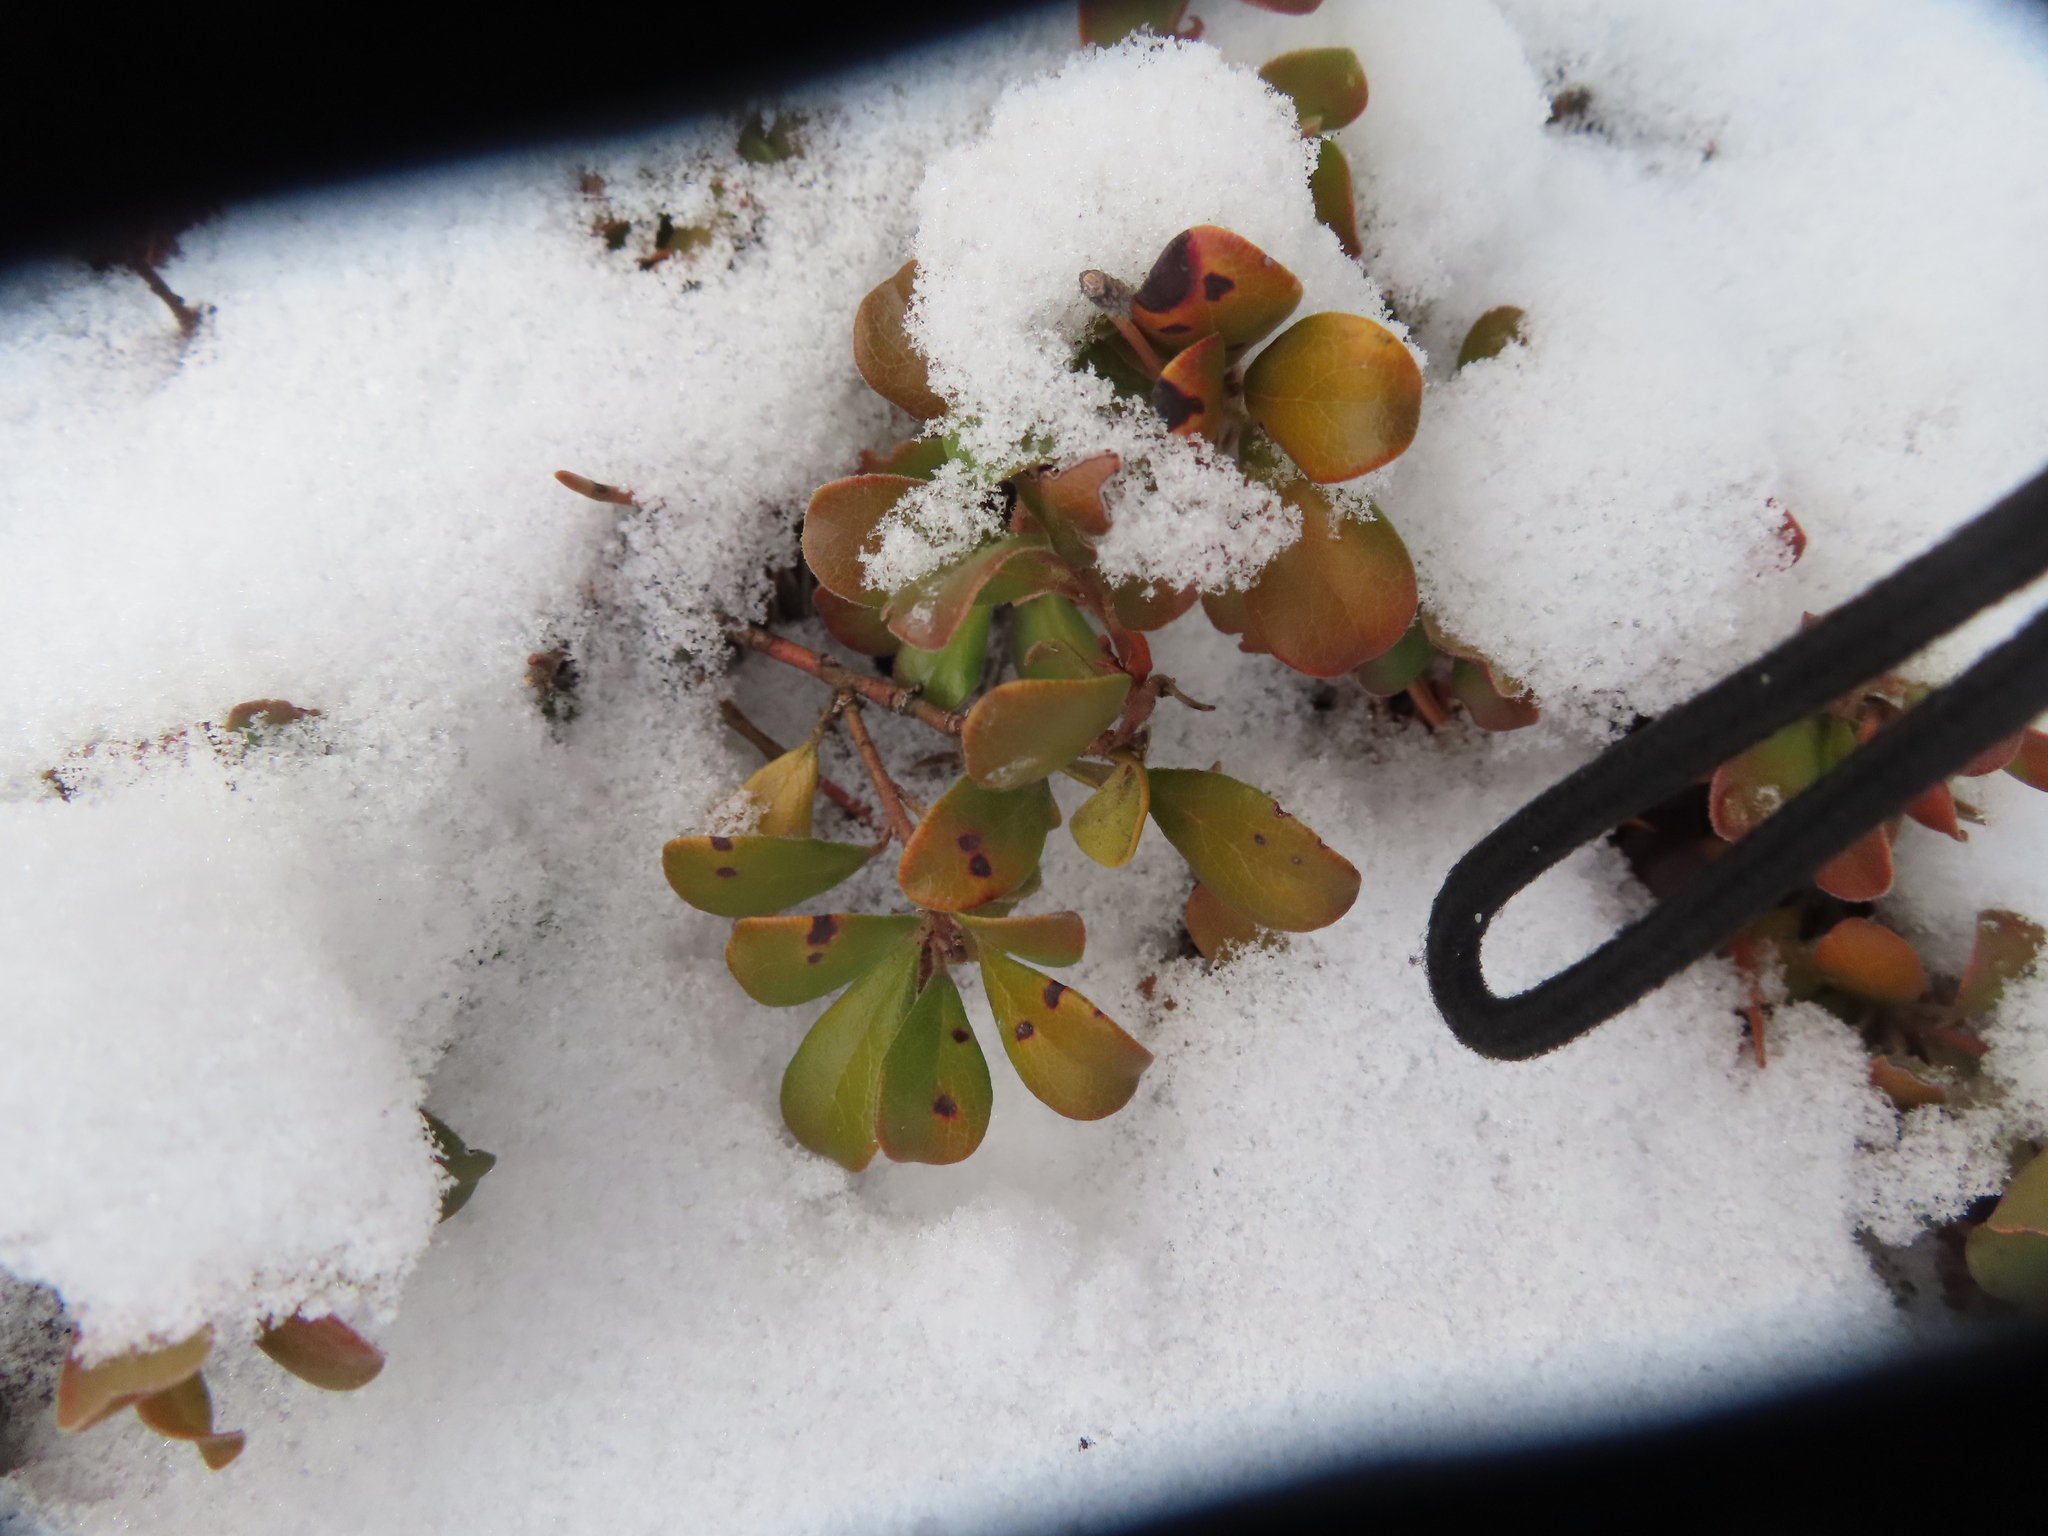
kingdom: Plantae
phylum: Tracheophyta
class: Magnoliopsida
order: Ericales
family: Ericaceae
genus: Arctostaphylos
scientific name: Arctostaphylos uva-ursi
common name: Bearberry
